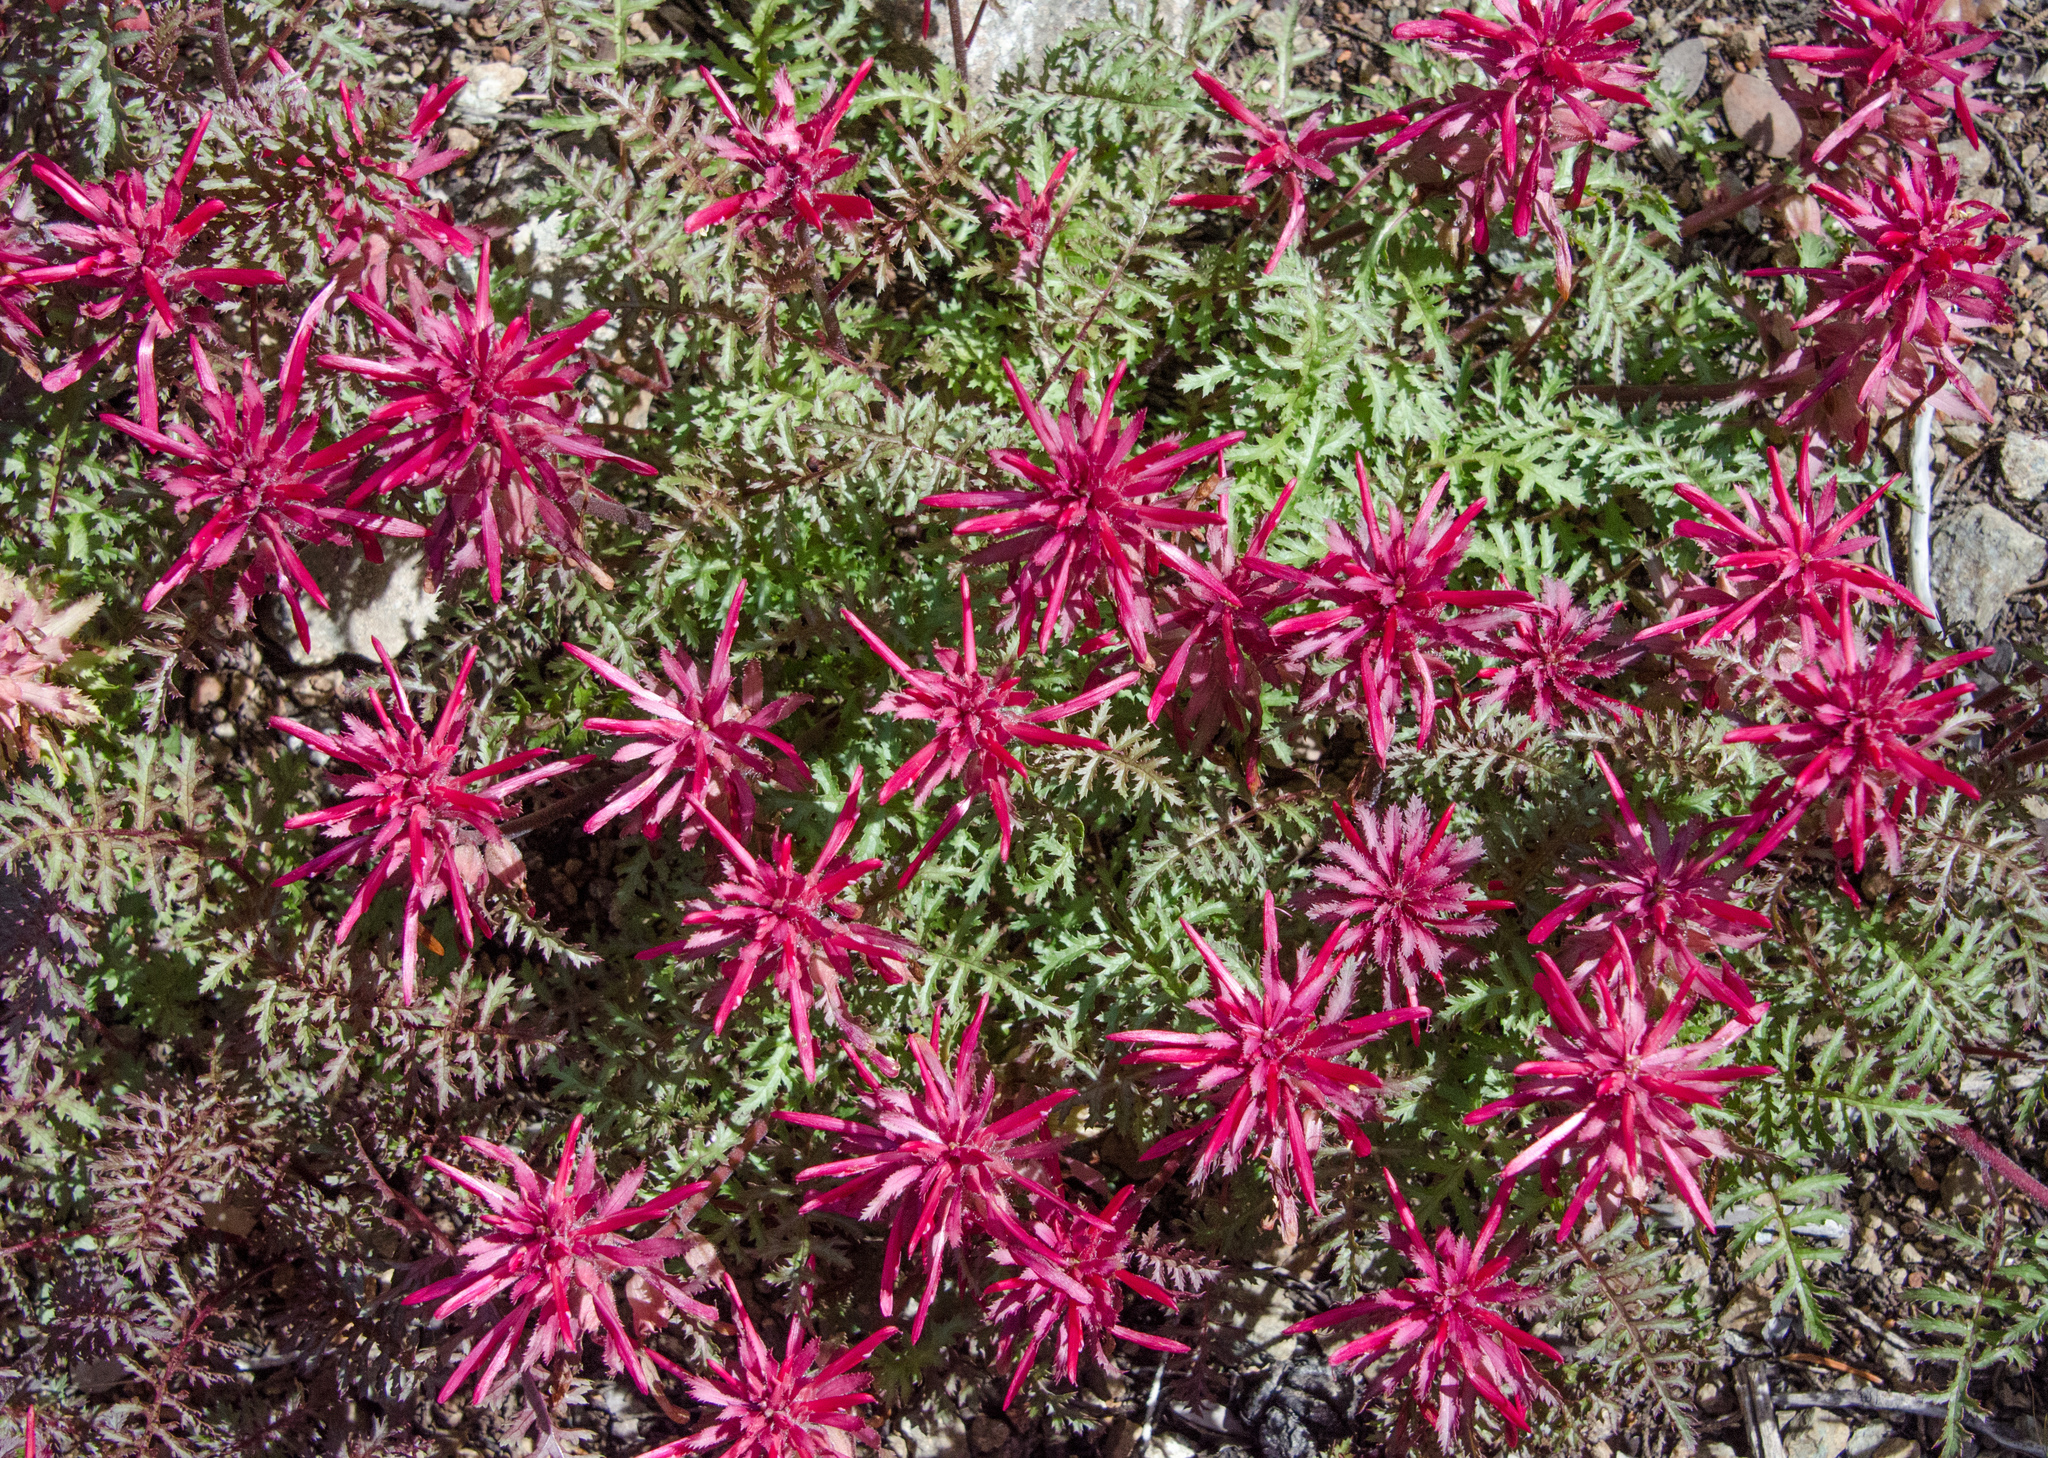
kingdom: Plantae
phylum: Tracheophyta
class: Magnoliopsida
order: Lamiales
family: Orobanchaceae
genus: Pedicularis
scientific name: Pedicularis densiflora
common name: Indian warrior
